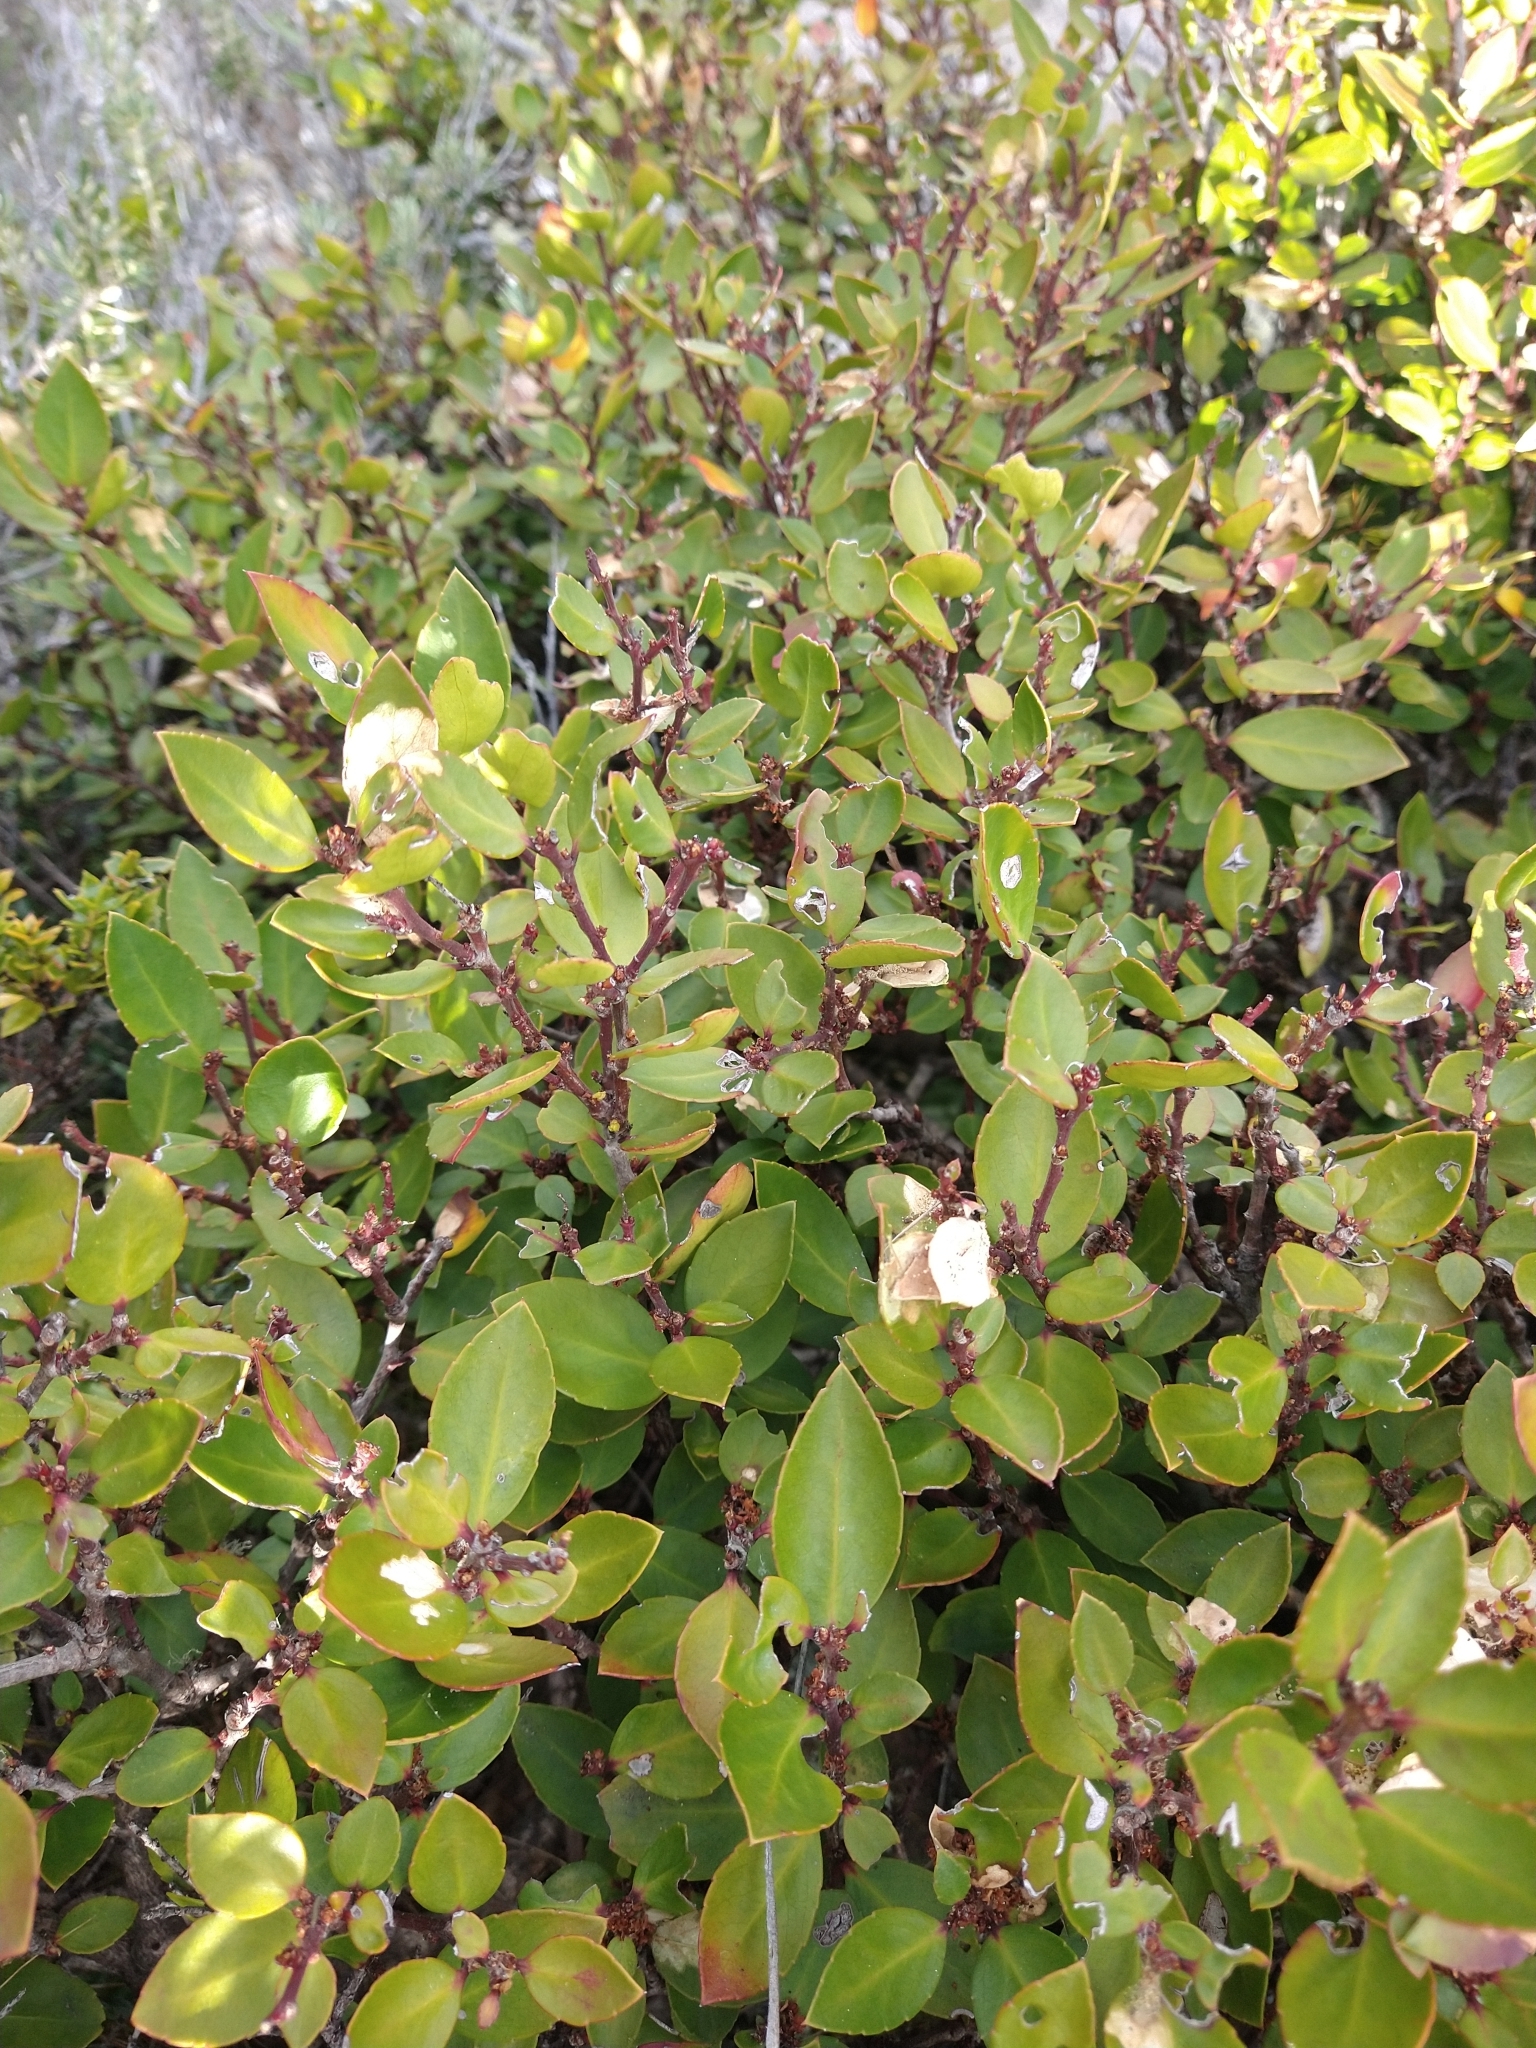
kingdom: Plantae
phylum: Tracheophyta
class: Magnoliopsida
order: Celastrales
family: Celastraceae
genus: Maytenus
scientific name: Maytenus magellanica
